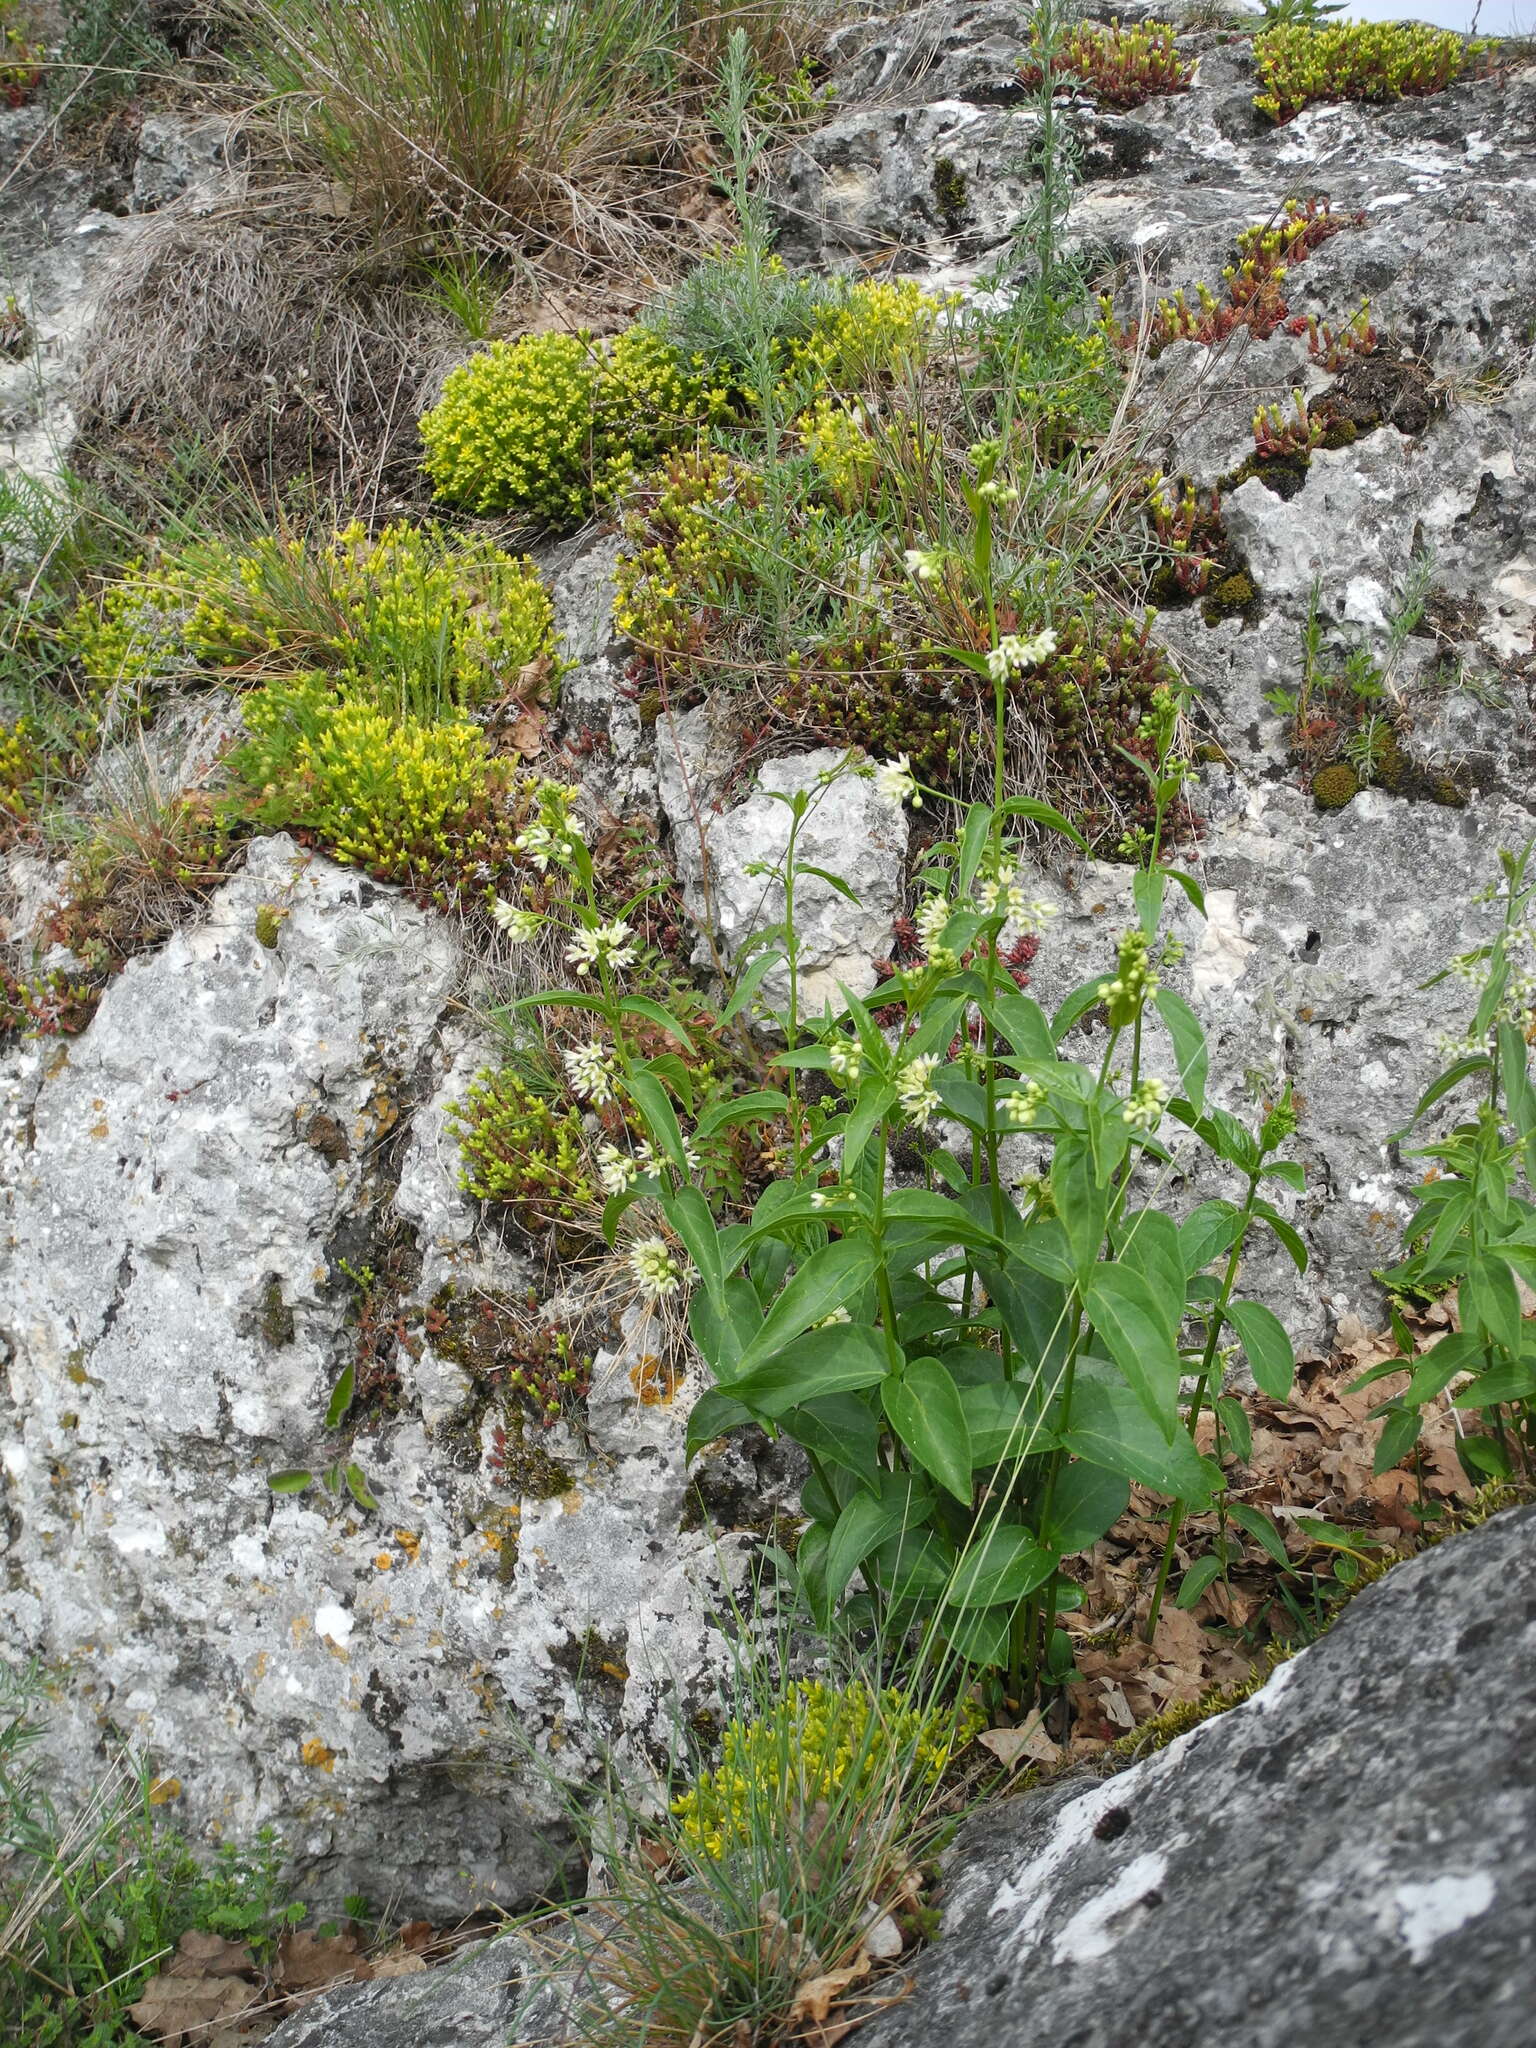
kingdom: Plantae
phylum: Tracheophyta
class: Magnoliopsida
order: Gentianales
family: Apocynaceae
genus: Vincetoxicum
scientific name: Vincetoxicum hirundinaria
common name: White swallowwort
